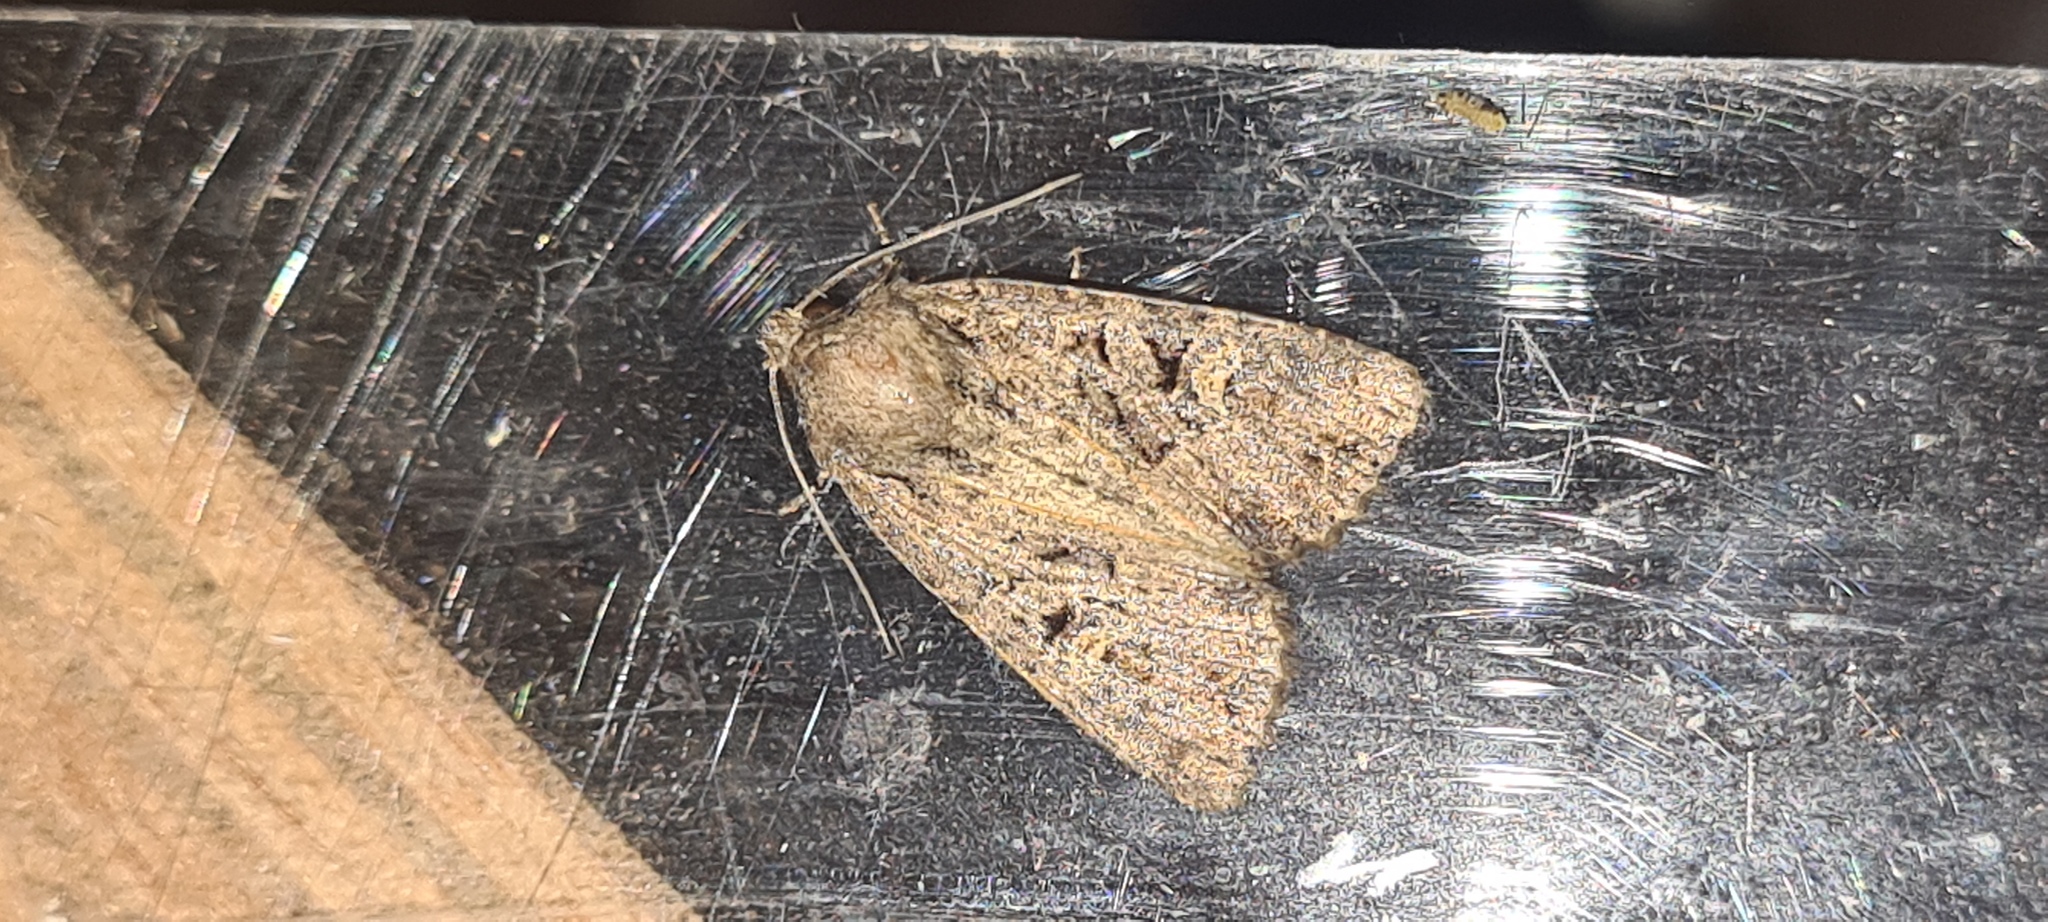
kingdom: Animalia
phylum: Arthropoda
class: Insecta
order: Lepidoptera
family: Noctuidae
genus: Apterogenum
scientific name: Apterogenum ypsillon
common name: Dingy shears
